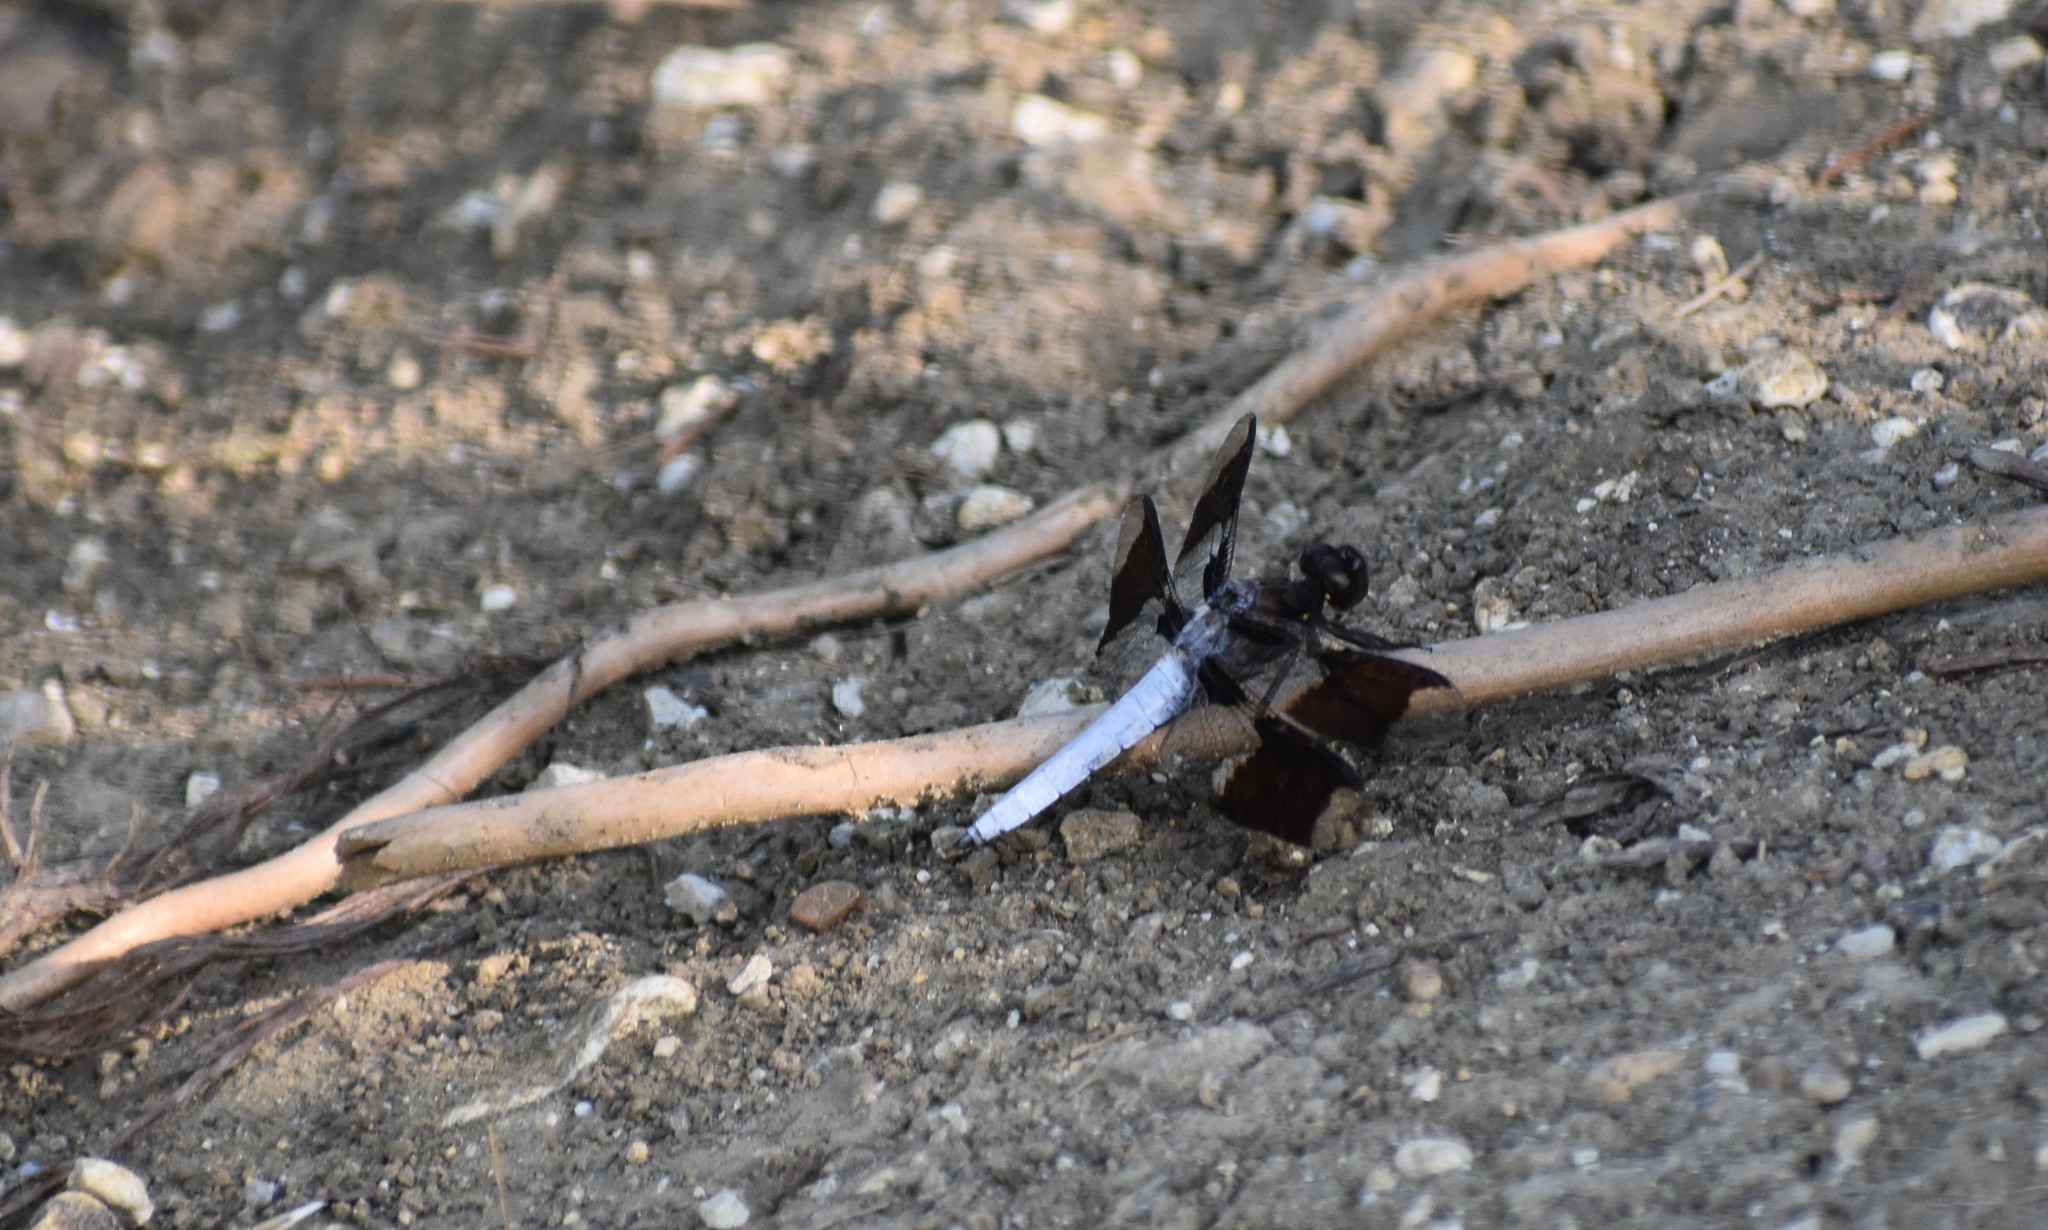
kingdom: Animalia
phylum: Arthropoda
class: Insecta
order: Odonata
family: Libellulidae
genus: Plathemis
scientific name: Plathemis lydia
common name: Common whitetail
